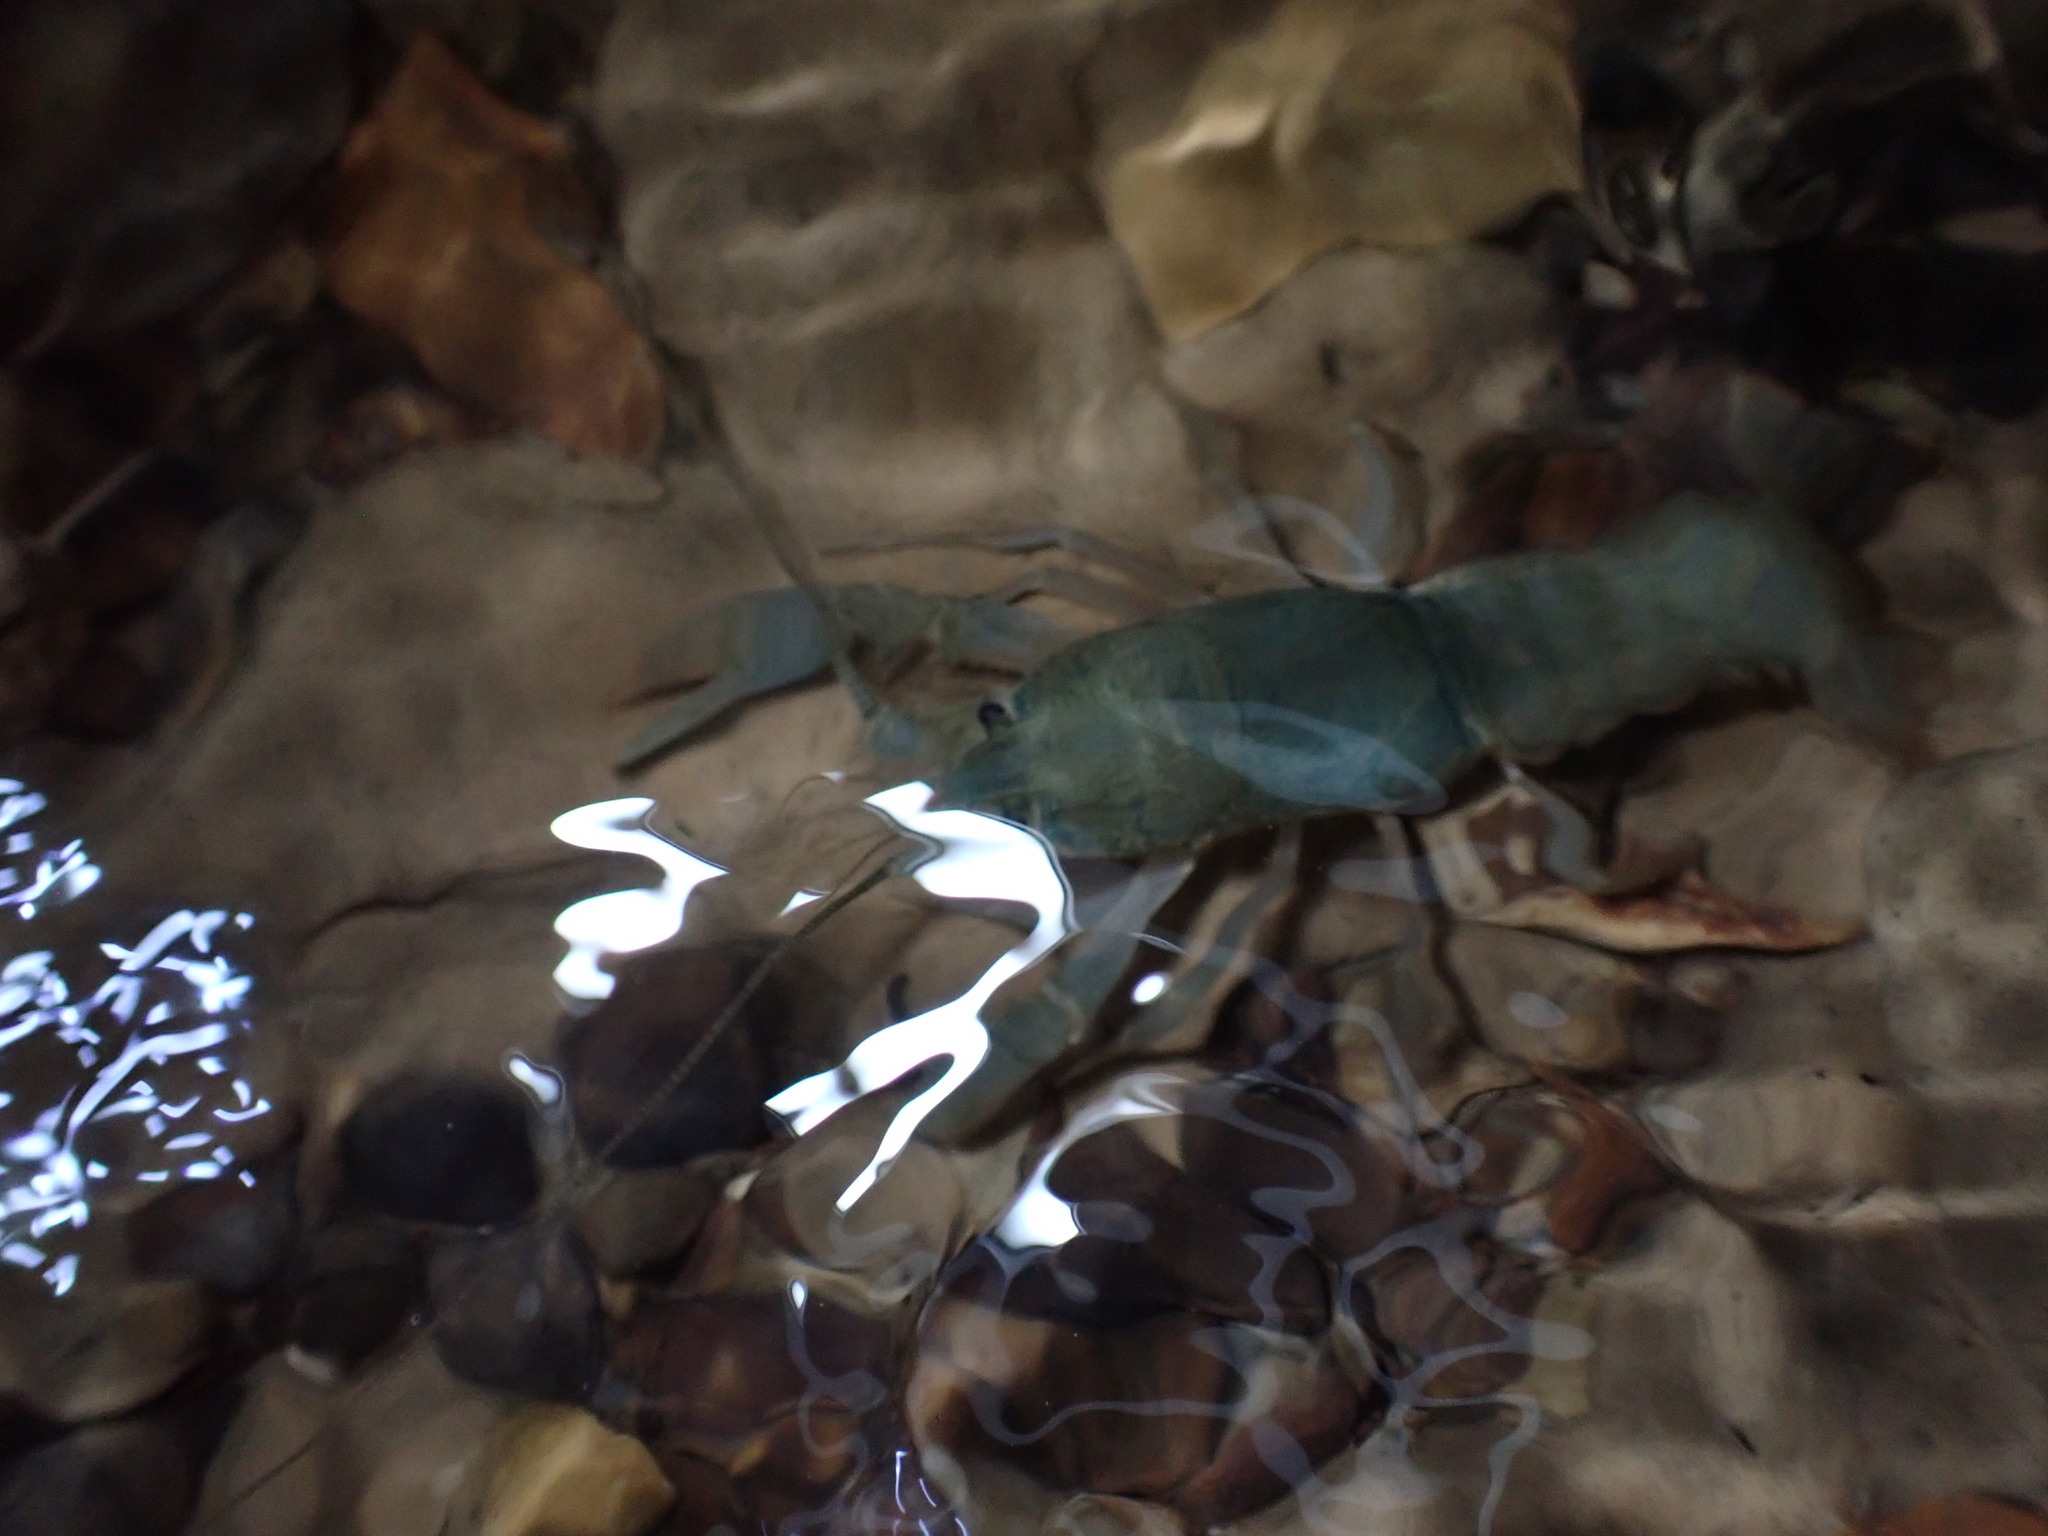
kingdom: Animalia
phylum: Arthropoda
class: Malacostraca
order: Decapoda
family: Cambaridae
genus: Cambarus
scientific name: Cambarus tenebrosus
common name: Cavespring crayfish
